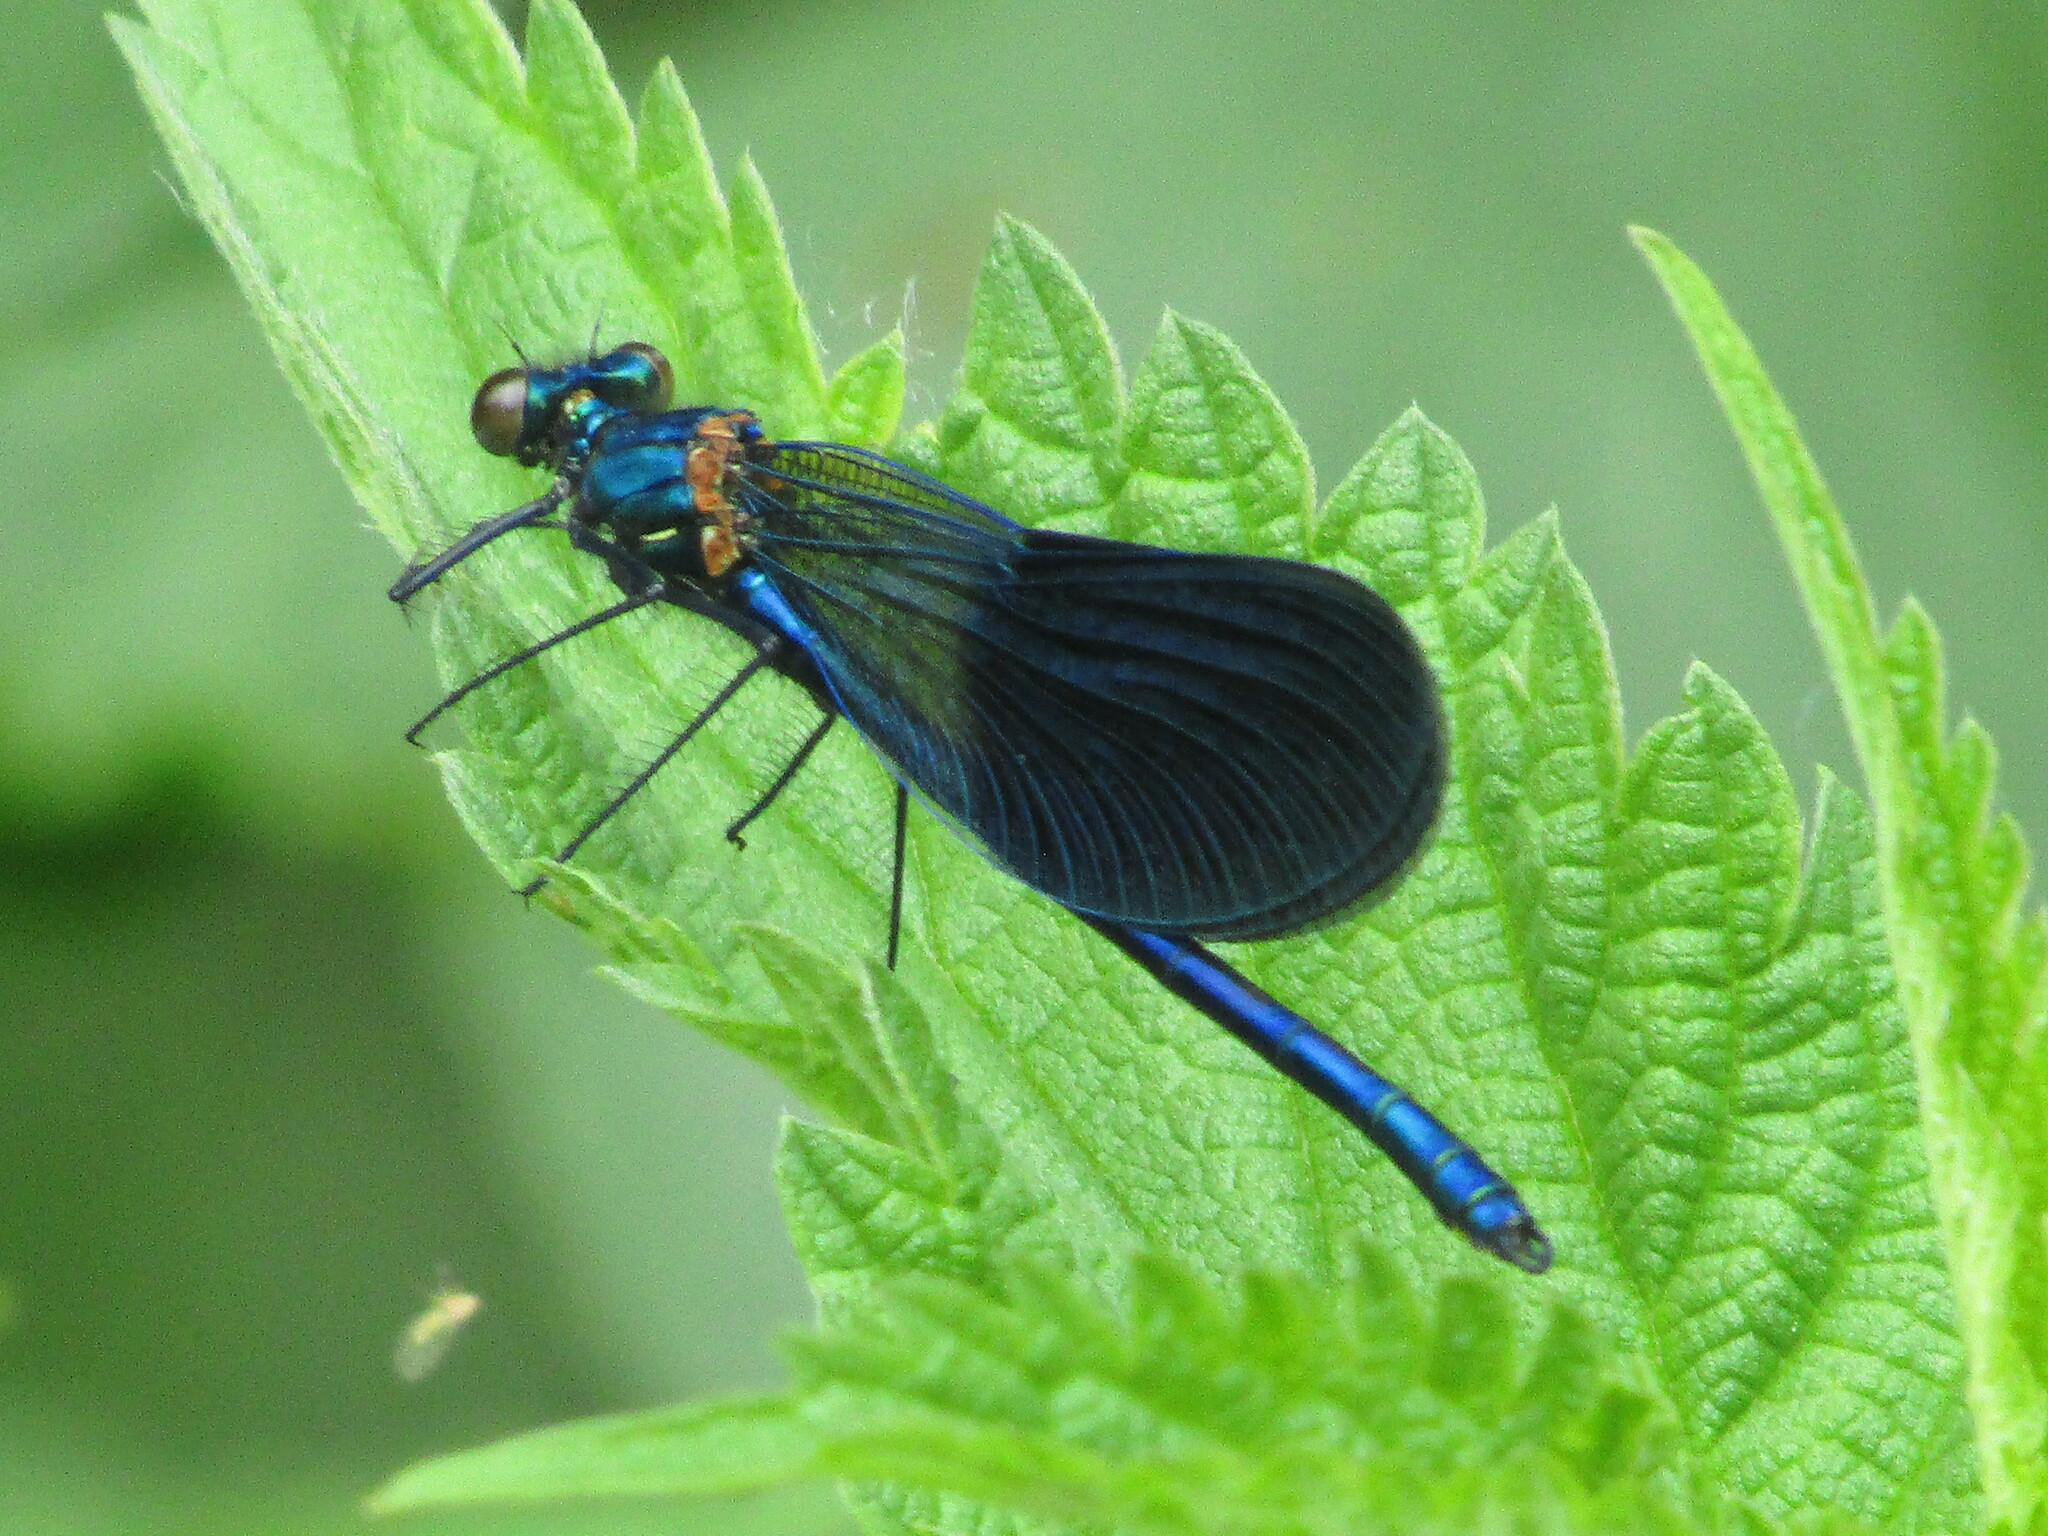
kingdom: Animalia
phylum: Arthropoda
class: Insecta
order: Odonata
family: Calopterygidae
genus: Calopteryx
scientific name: Calopteryx splendens
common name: Banded demoiselle
